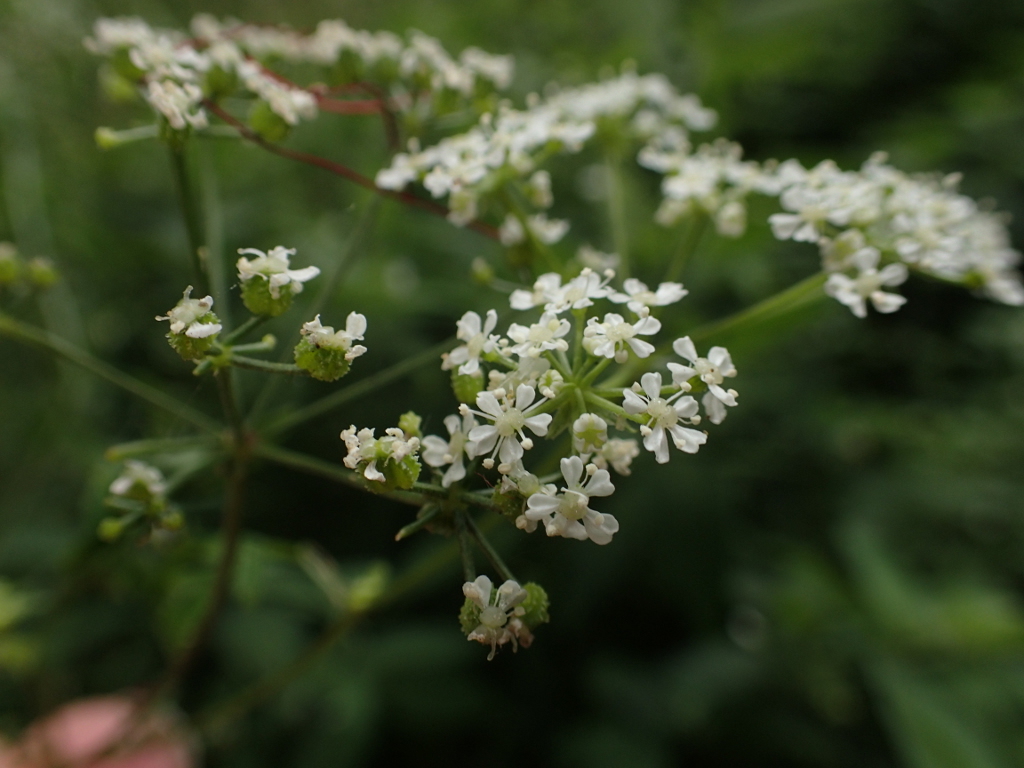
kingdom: Plantae
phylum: Tracheophyta
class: Magnoliopsida
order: Apiales
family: Apiaceae
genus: Conium
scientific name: Conium maculatum
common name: Hemlock
